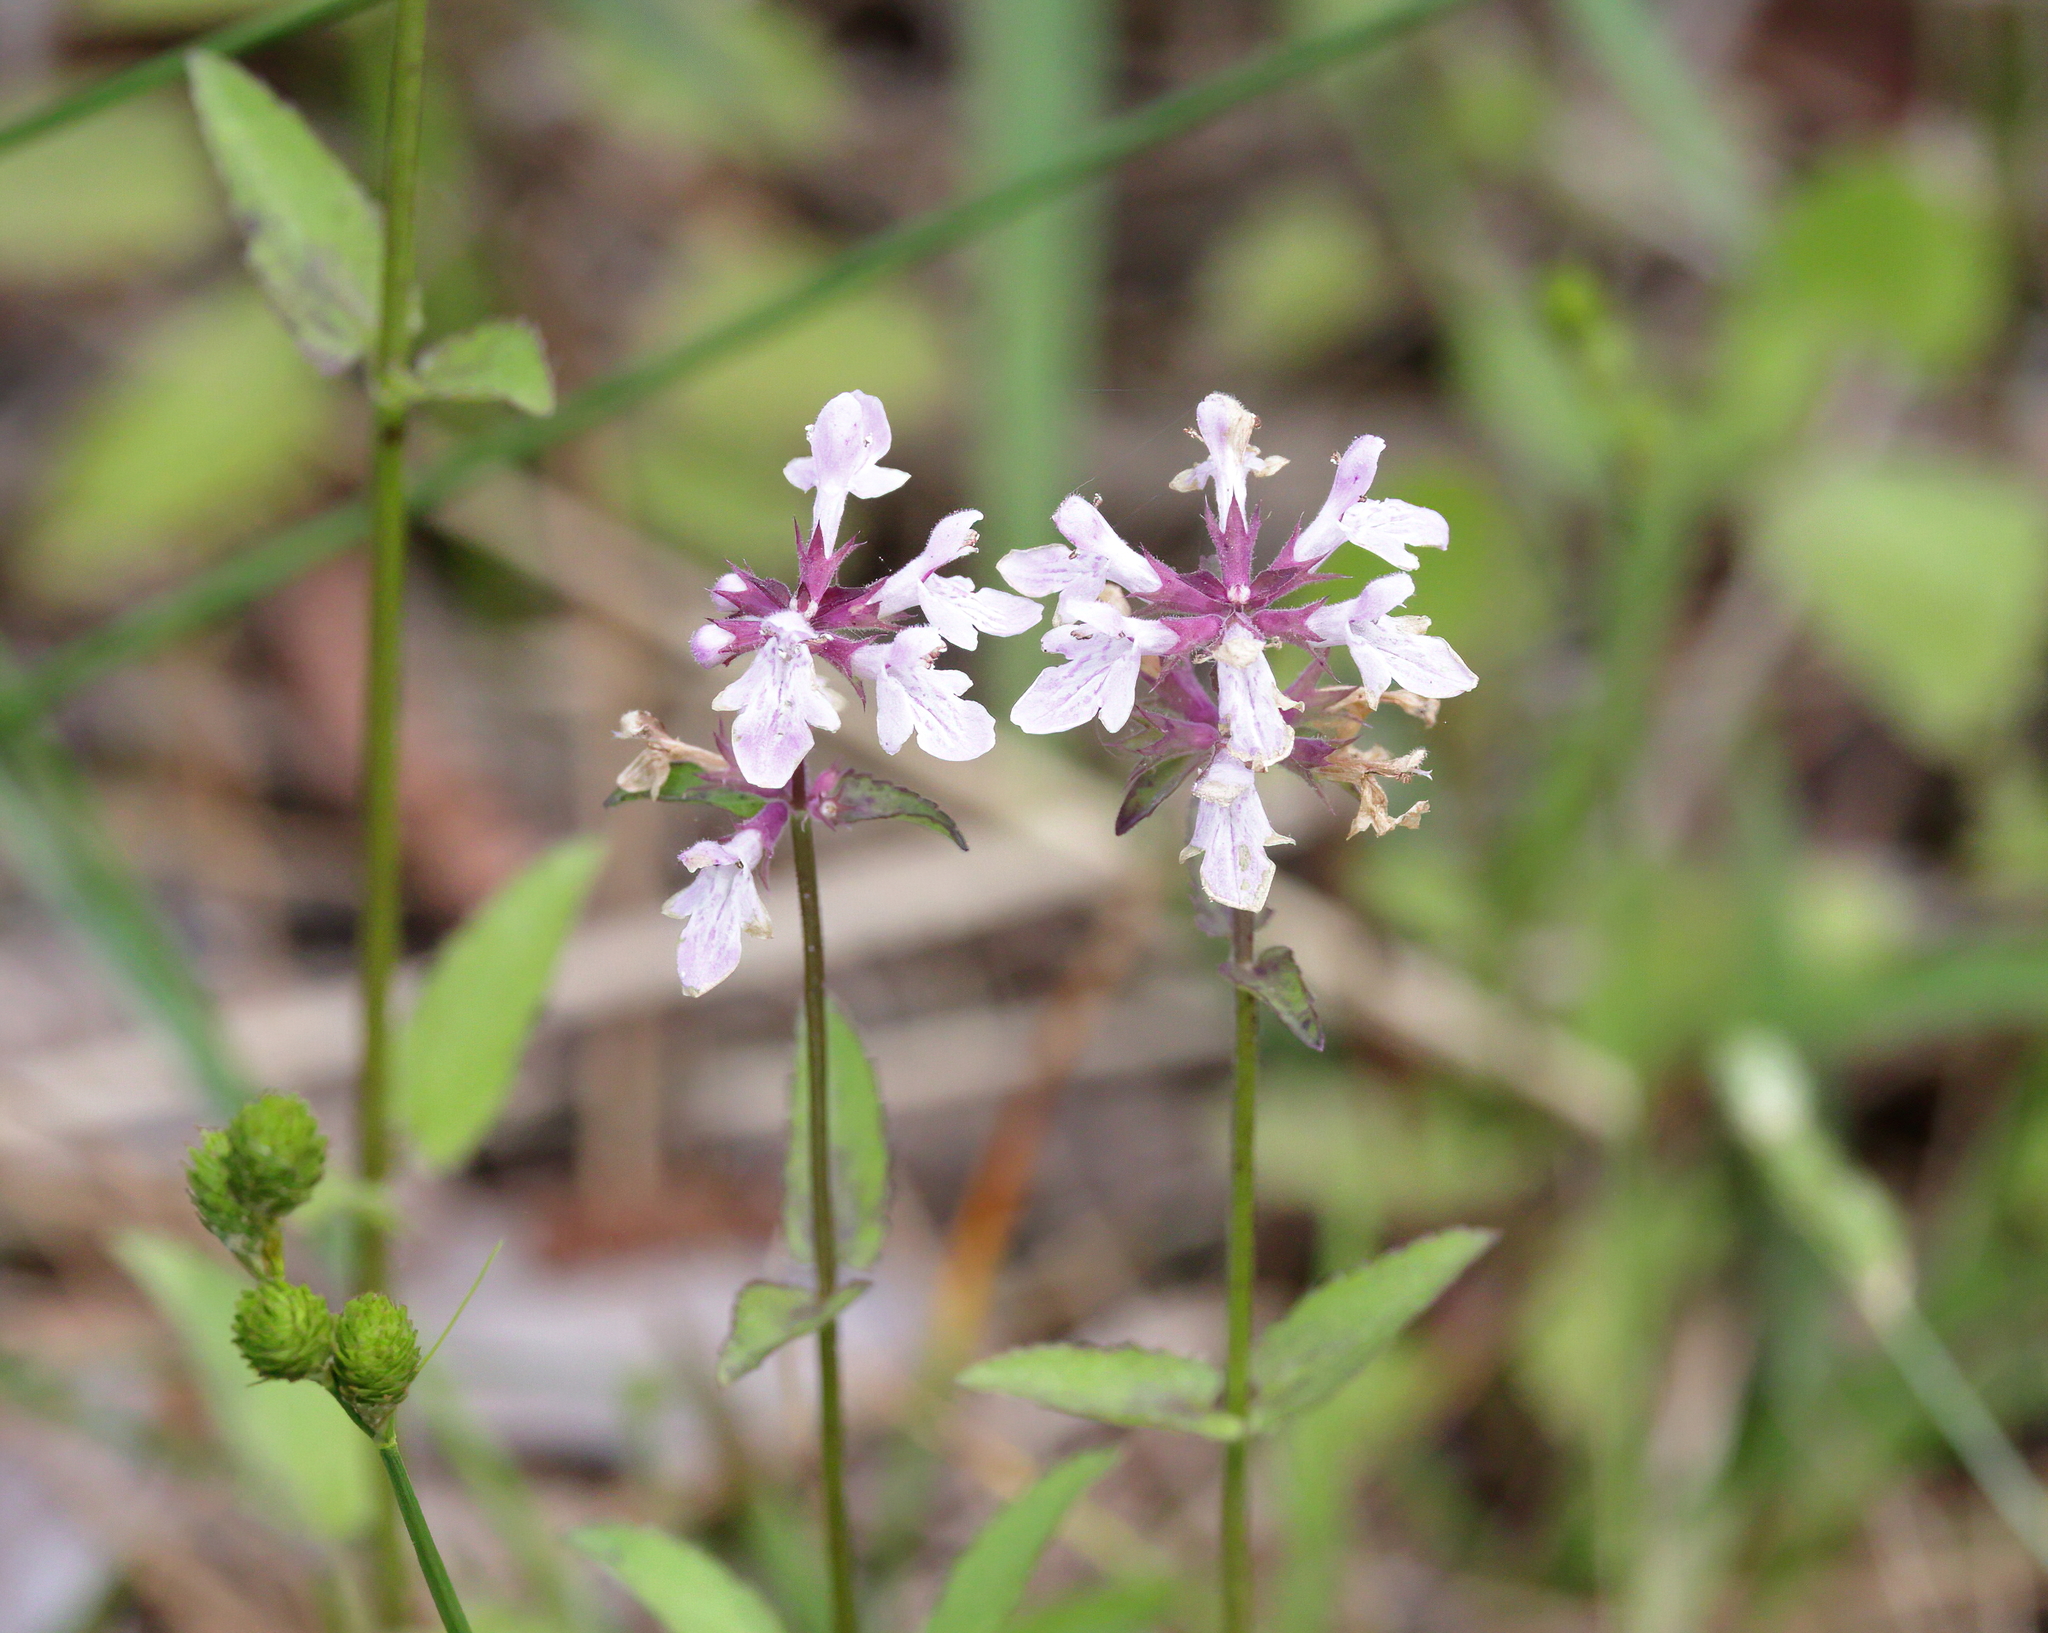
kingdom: Plantae
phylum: Tracheophyta
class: Magnoliopsida
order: Lamiales
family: Lamiaceae
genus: Stachys
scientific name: Stachys floridana
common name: Florida betony
